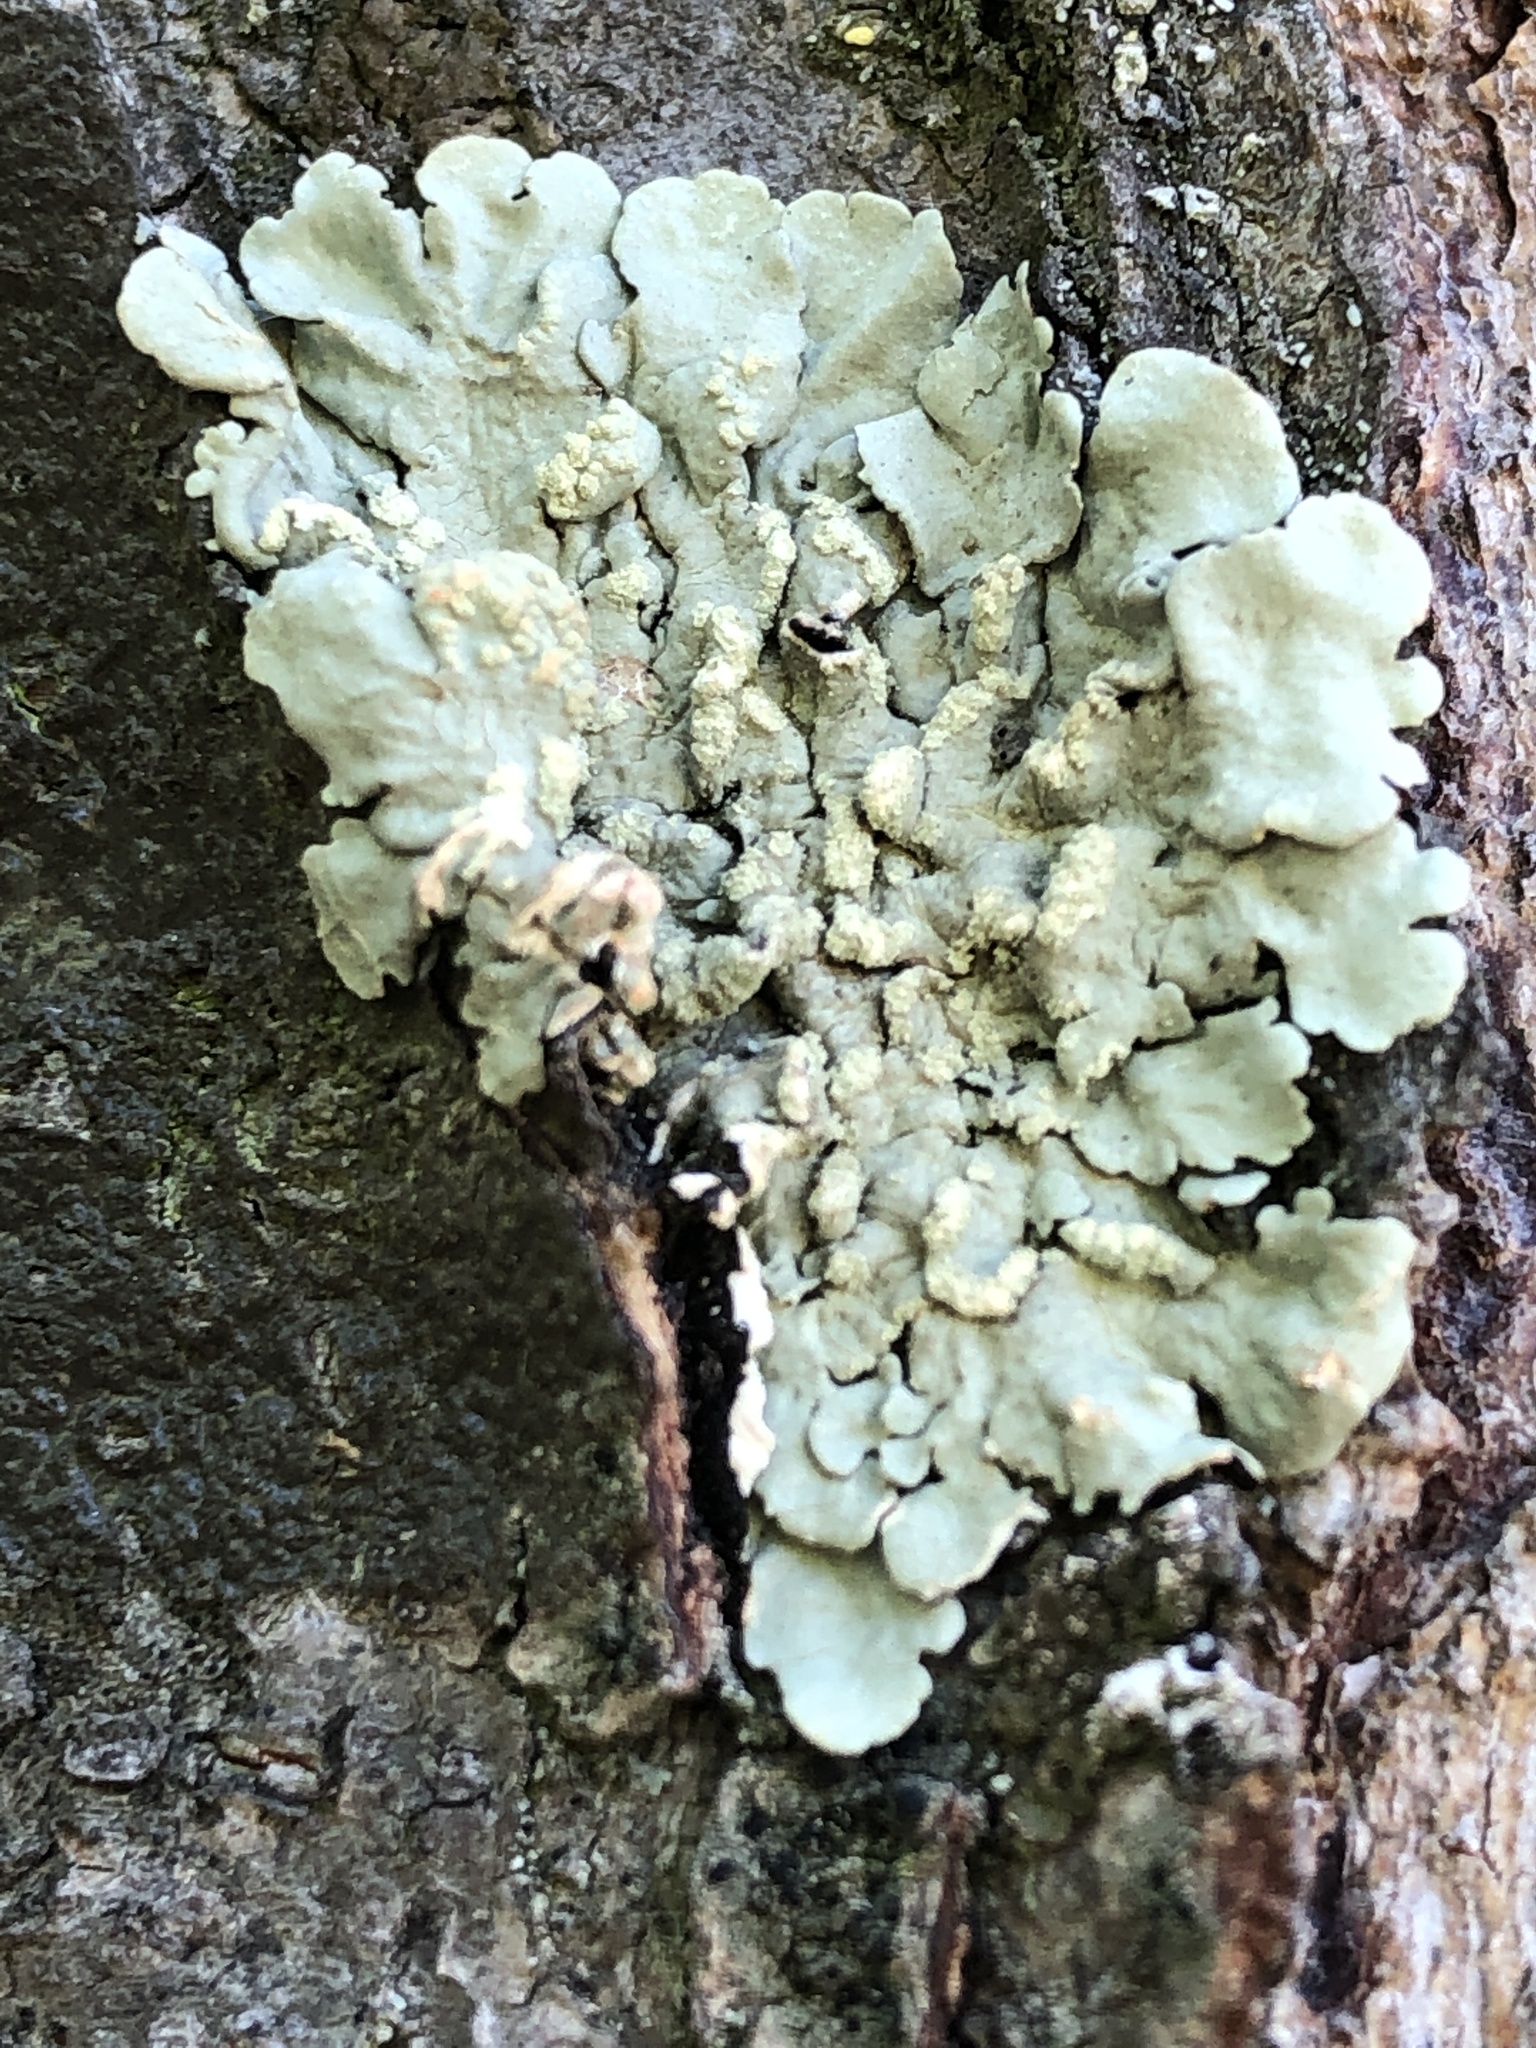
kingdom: Fungi
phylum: Ascomycota
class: Lecanoromycetes
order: Lecanorales
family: Parmeliaceae
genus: Flavoparmelia
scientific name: Flavoparmelia caperata
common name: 40-mile per hour lichen
